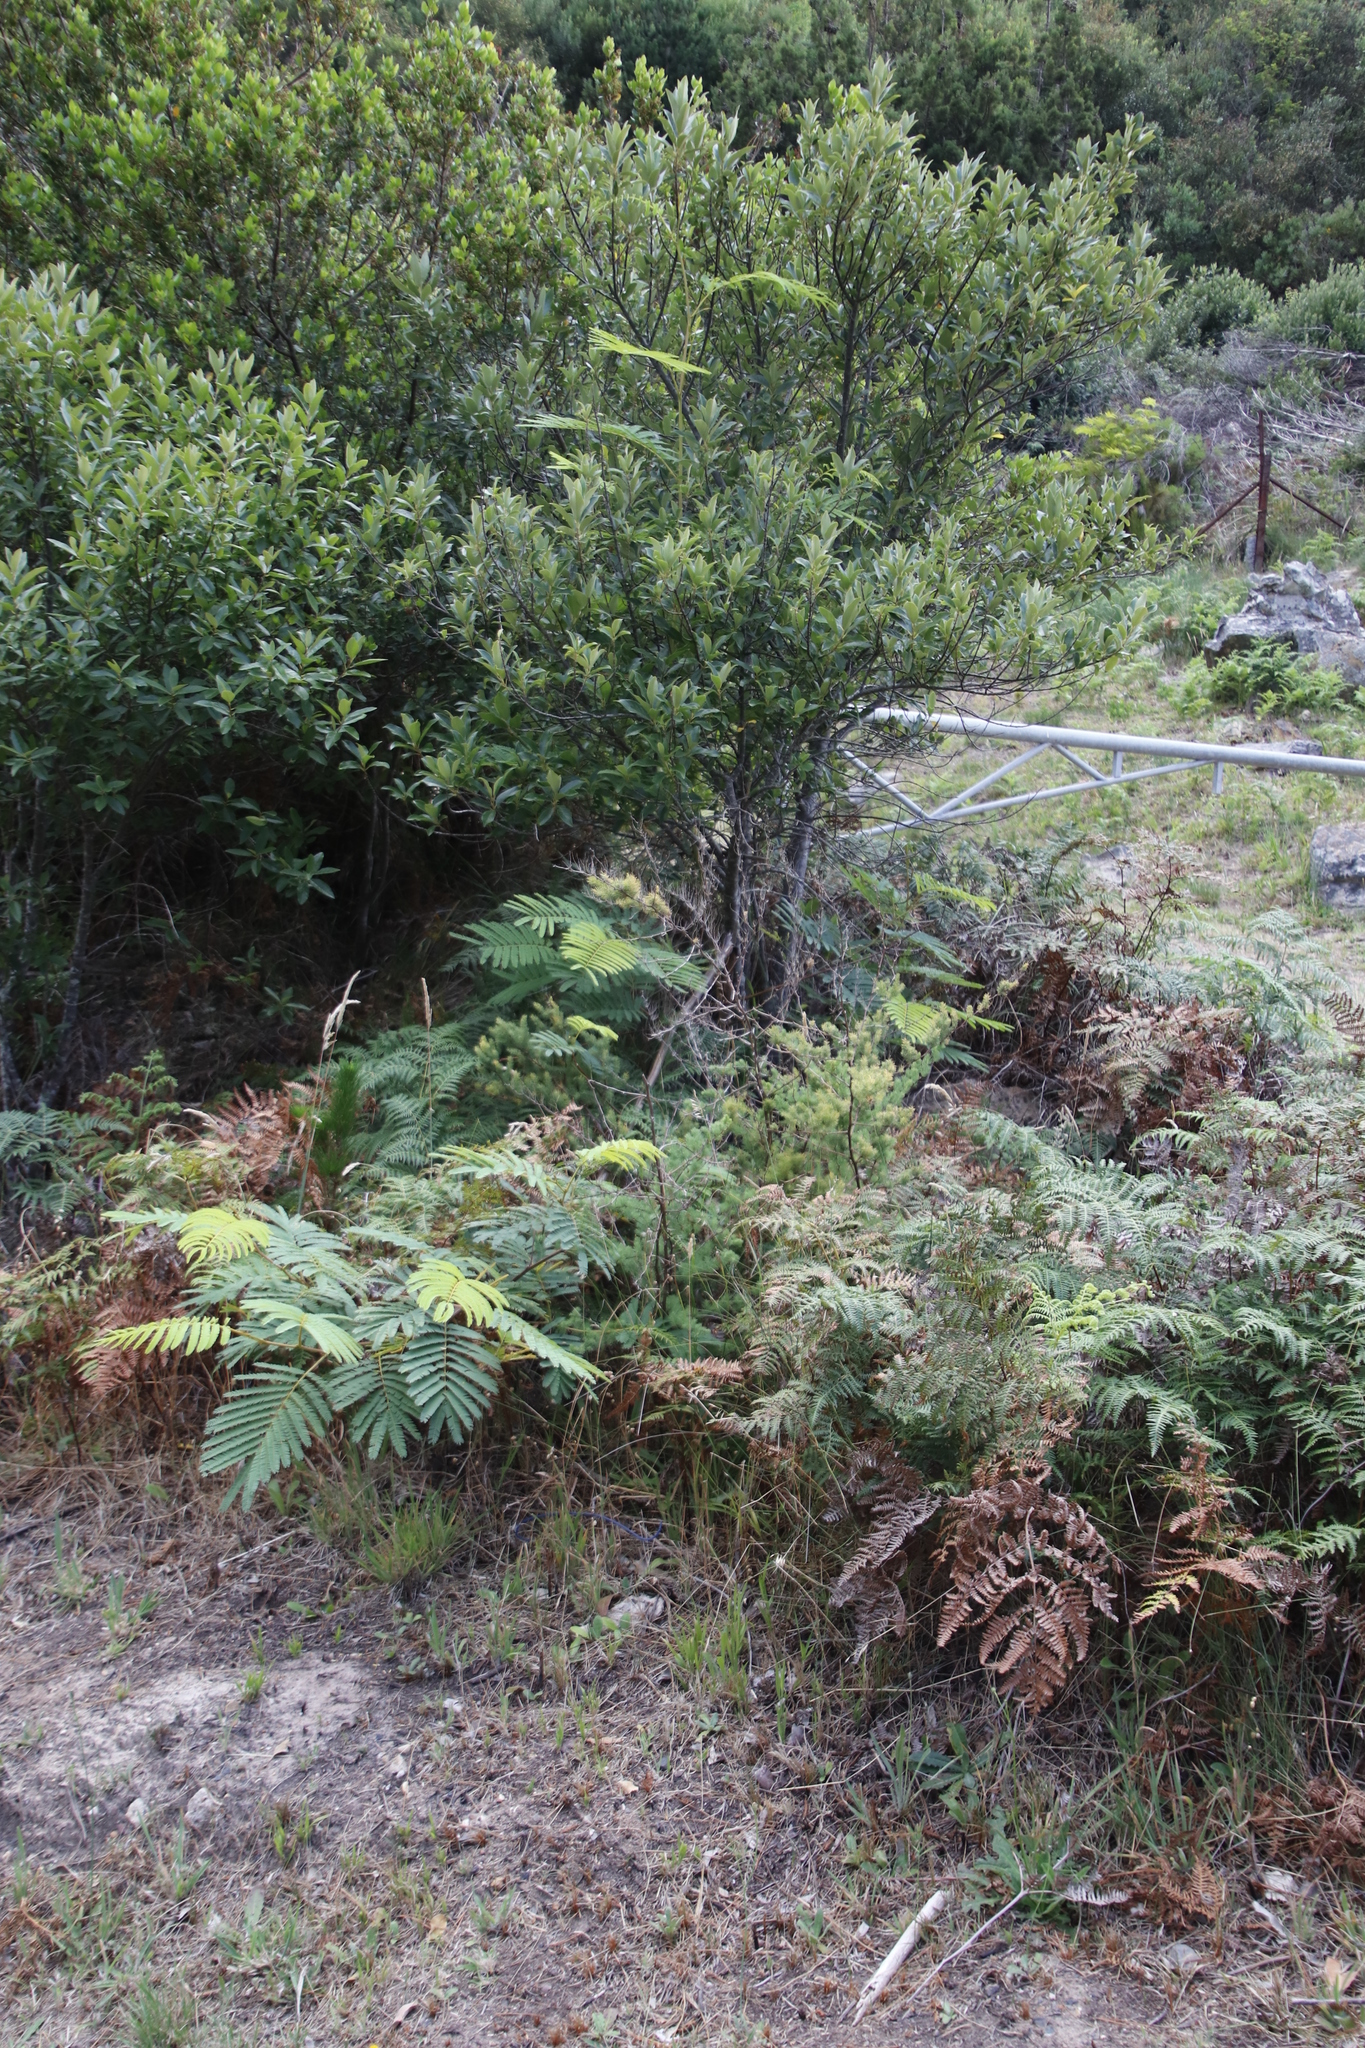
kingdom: Plantae
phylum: Tracheophyta
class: Magnoliopsida
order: Fabales
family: Fabaceae
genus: Paraserianthes
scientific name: Paraserianthes lophantha
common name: Plume albizia
